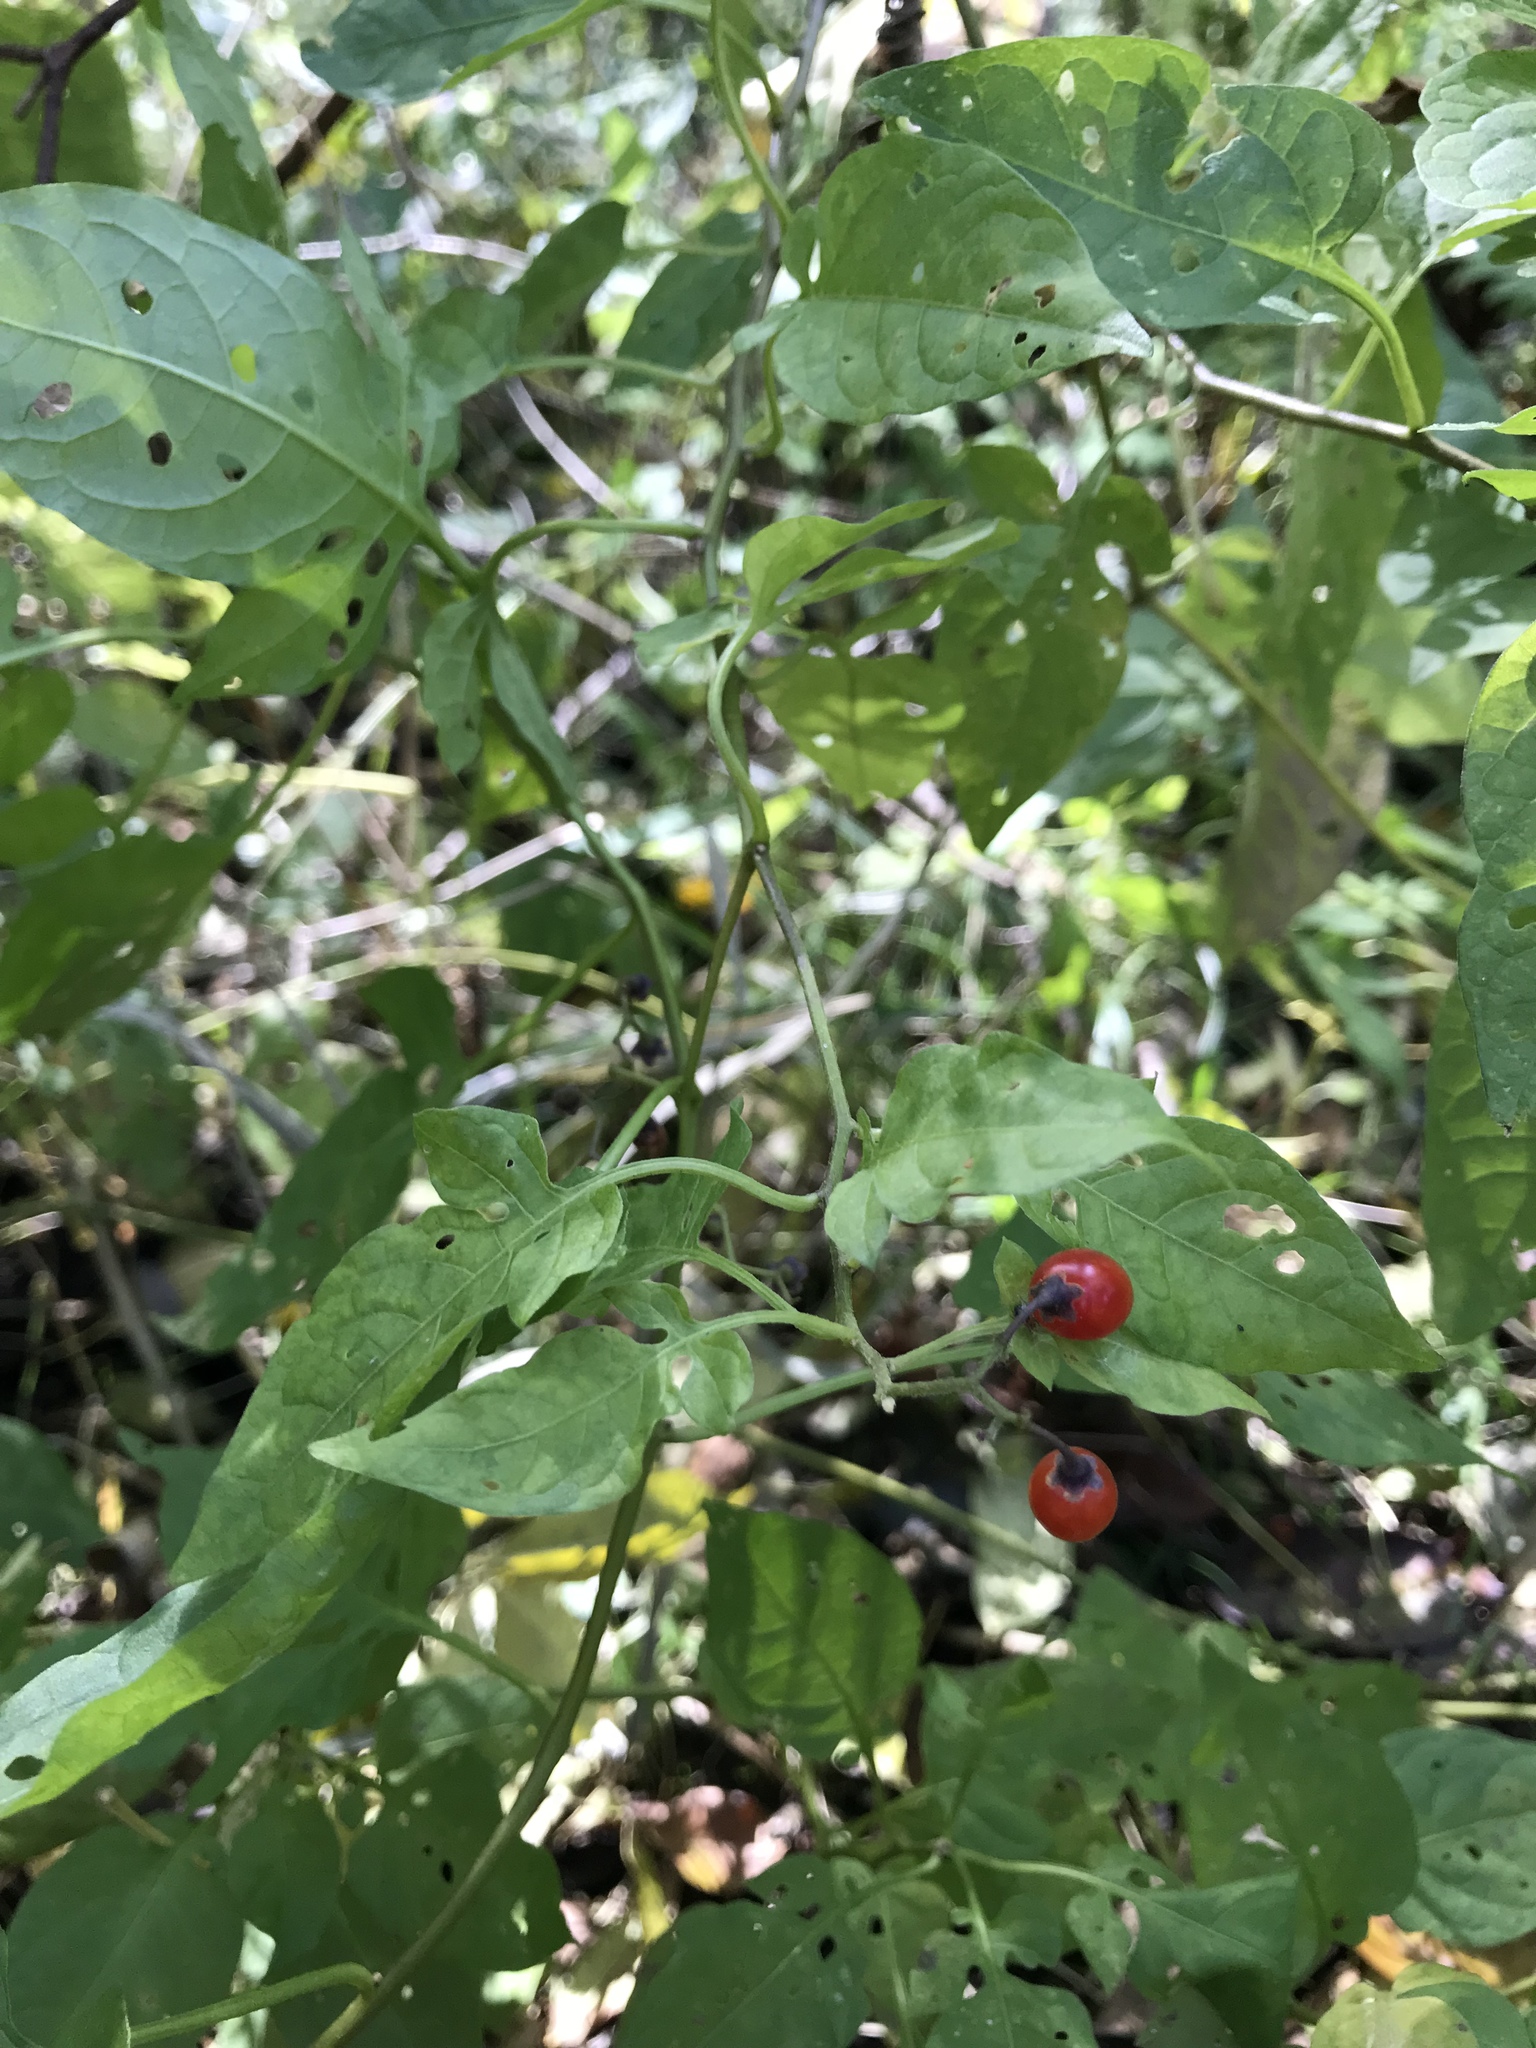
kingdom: Plantae
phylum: Tracheophyta
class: Magnoliopsida
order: Solanales
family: Solanaceae
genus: Solanum
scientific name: Solanum dulcamara
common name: Climbing nightshade
